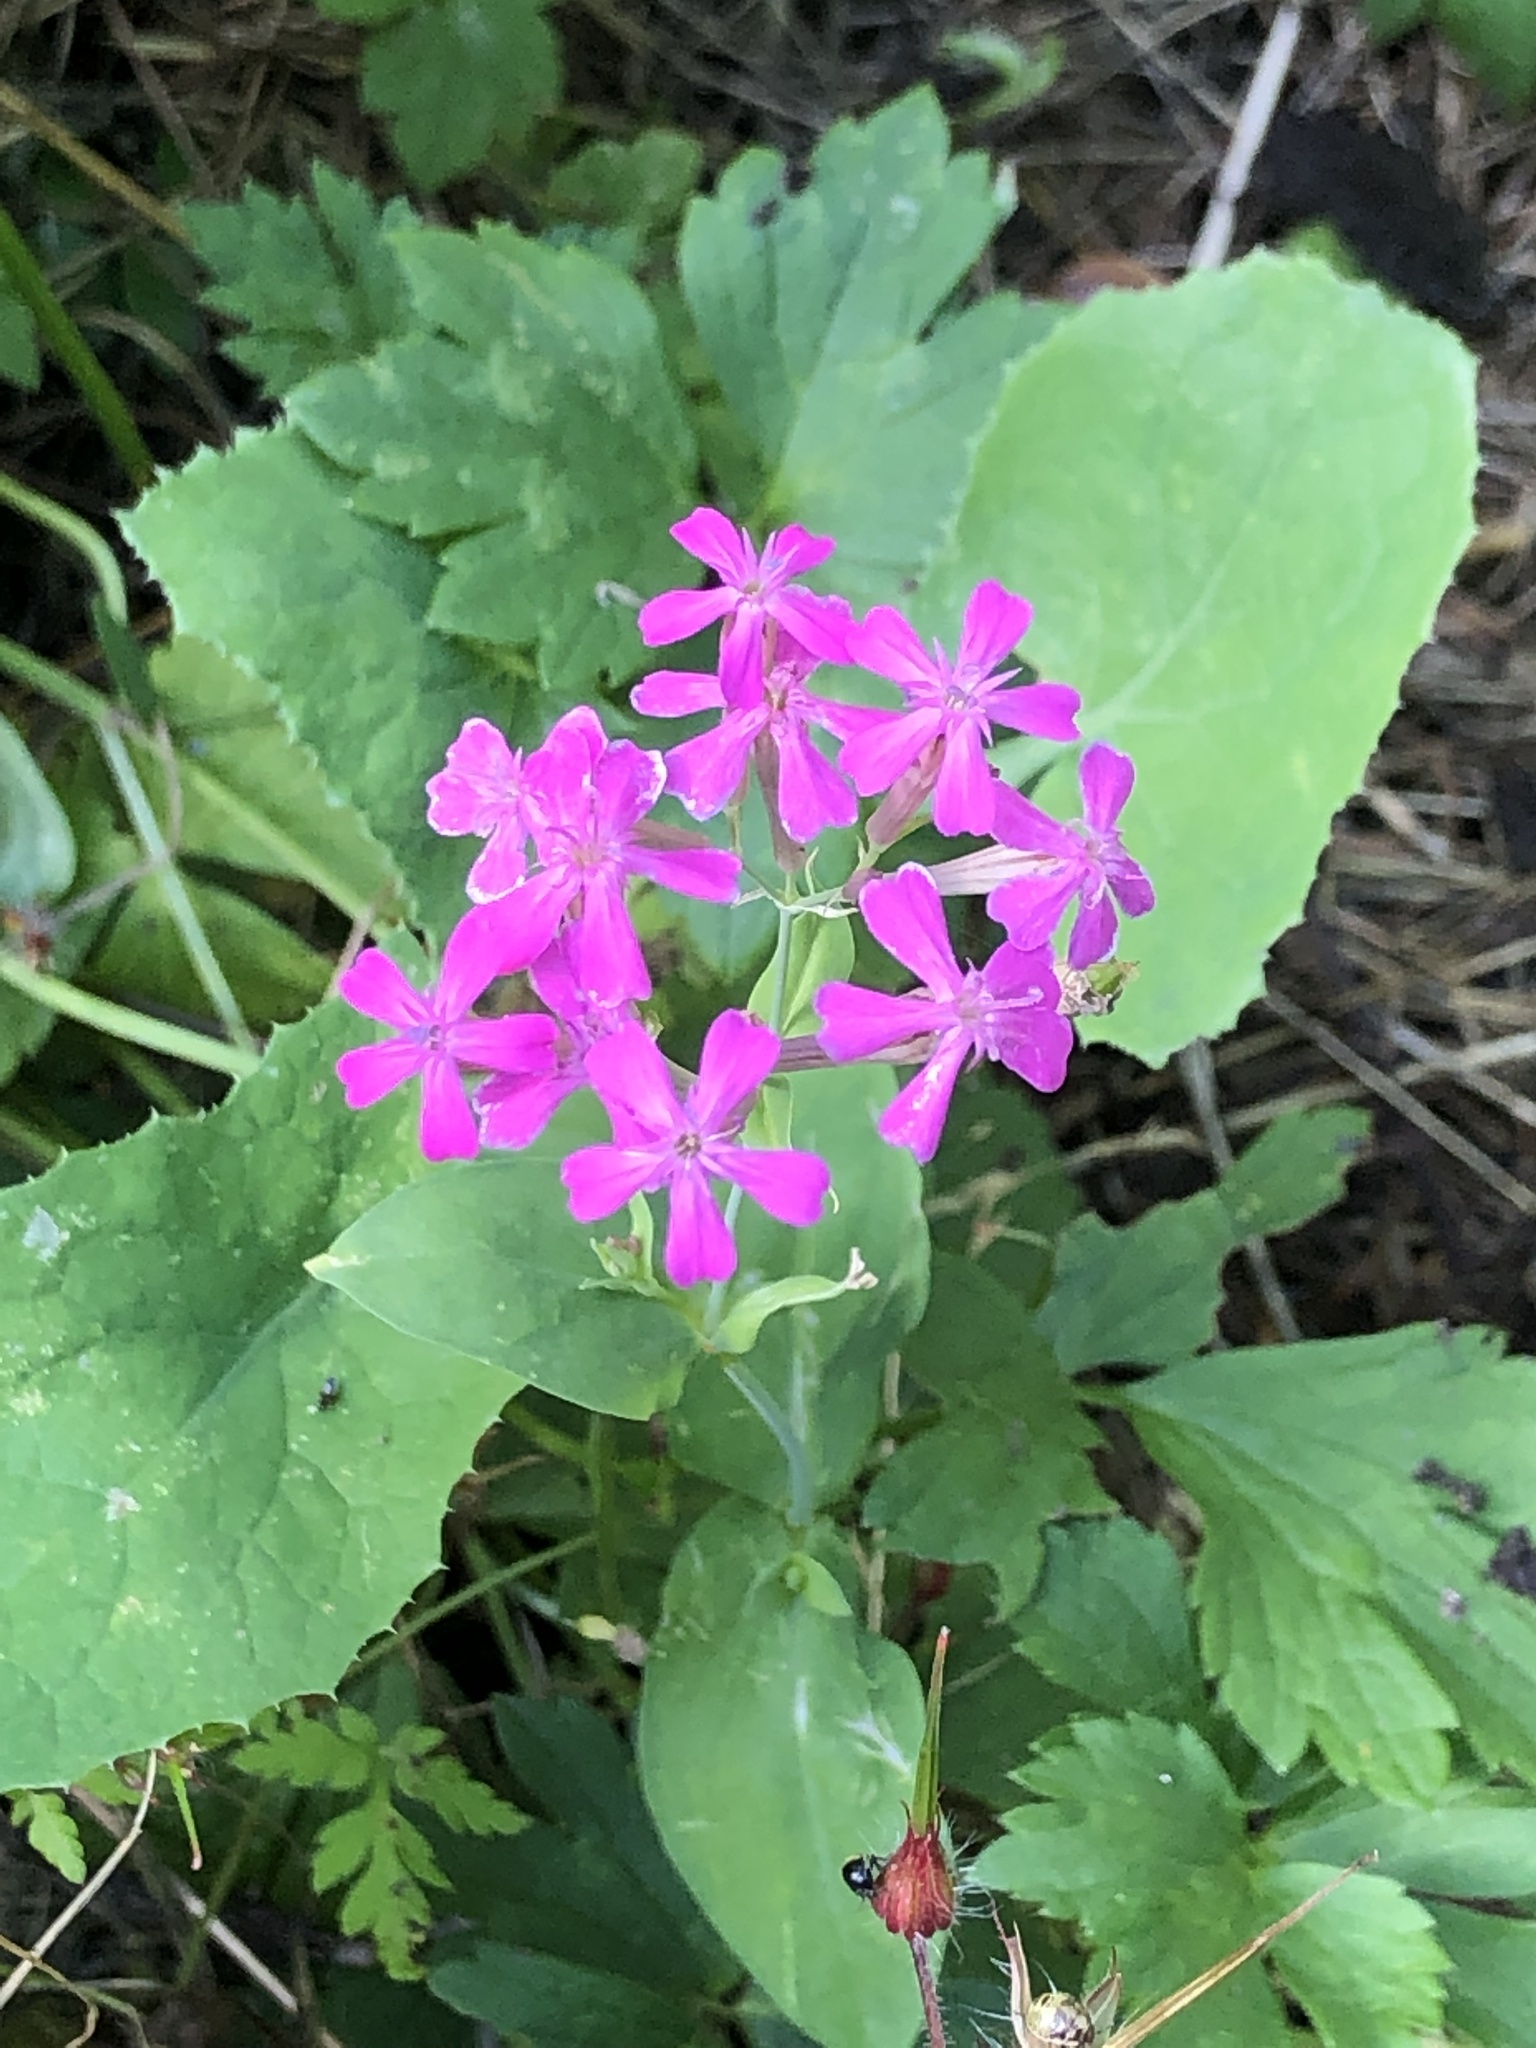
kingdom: Plantae
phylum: Tracheophyta
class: Magnoliopsida
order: Caryophyllales
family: Caryophyllaceae
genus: Atocion
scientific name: Atocion armeria
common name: Sweet william catchfly
